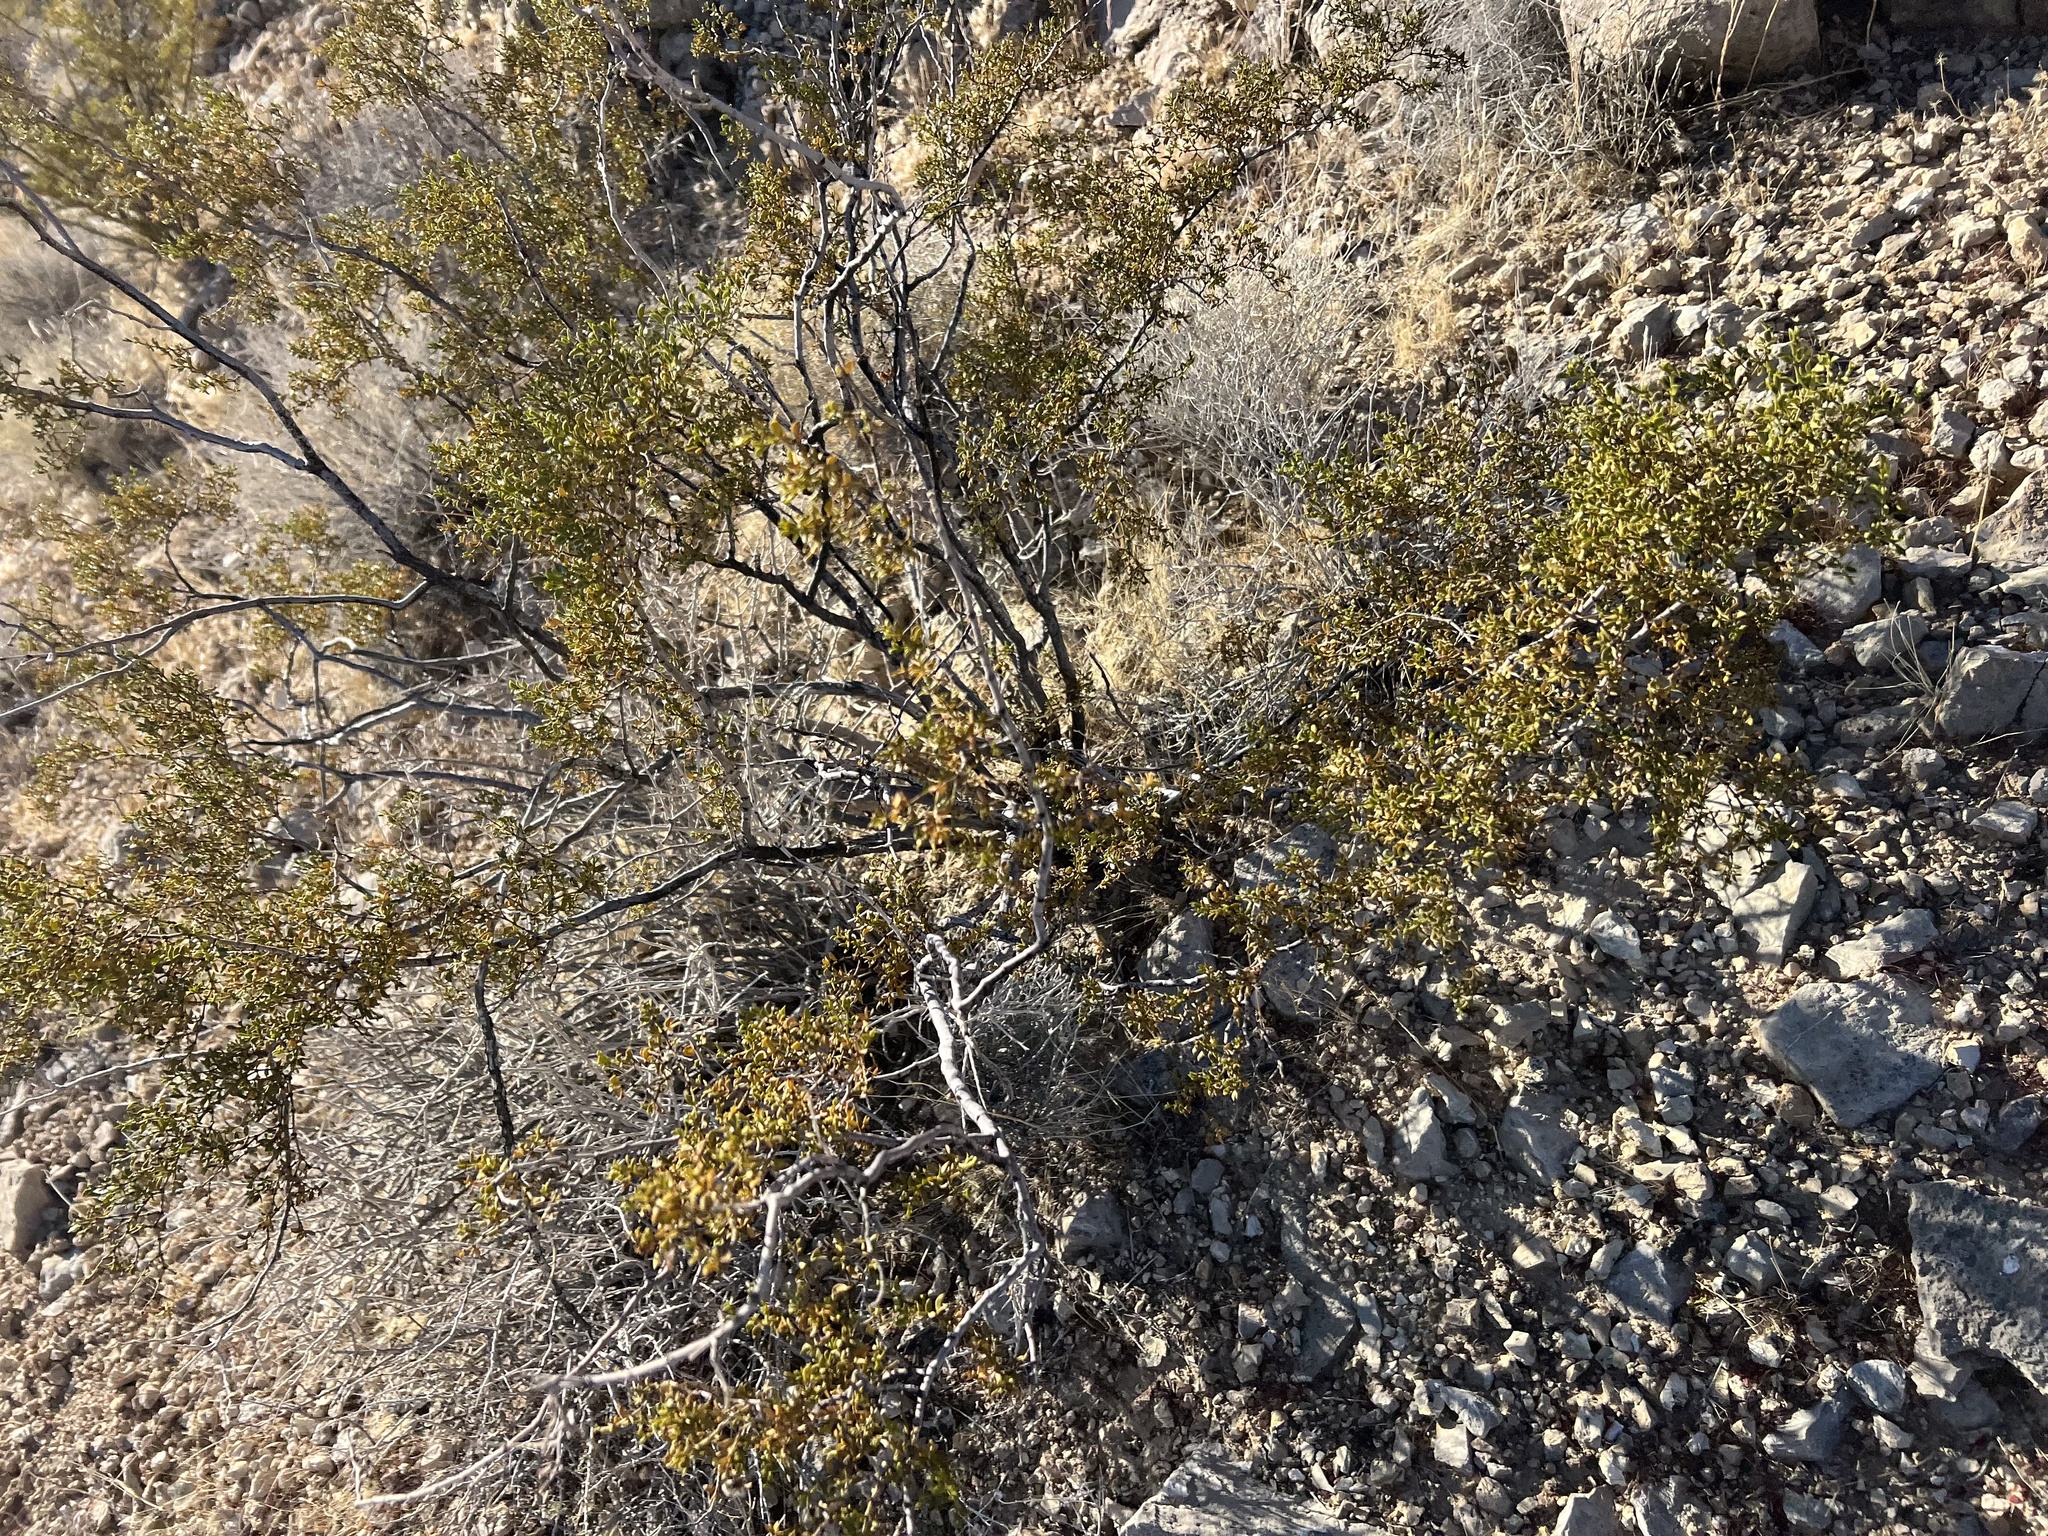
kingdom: Plantae
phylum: Tracheophyta
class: Magnoliopsida
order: Zygophyllales
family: Zygophyllaceae
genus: Larrea
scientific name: Larrea tridentata
